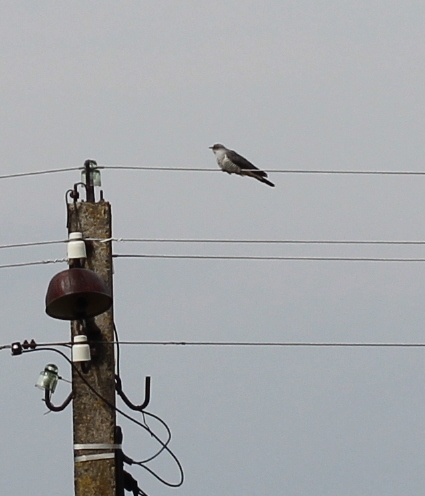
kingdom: Animalia
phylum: Chordata
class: Aves
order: Cuculiformes
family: Cuculidae
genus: Cuculus
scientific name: Cuculus canorus
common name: Common cuckoo
